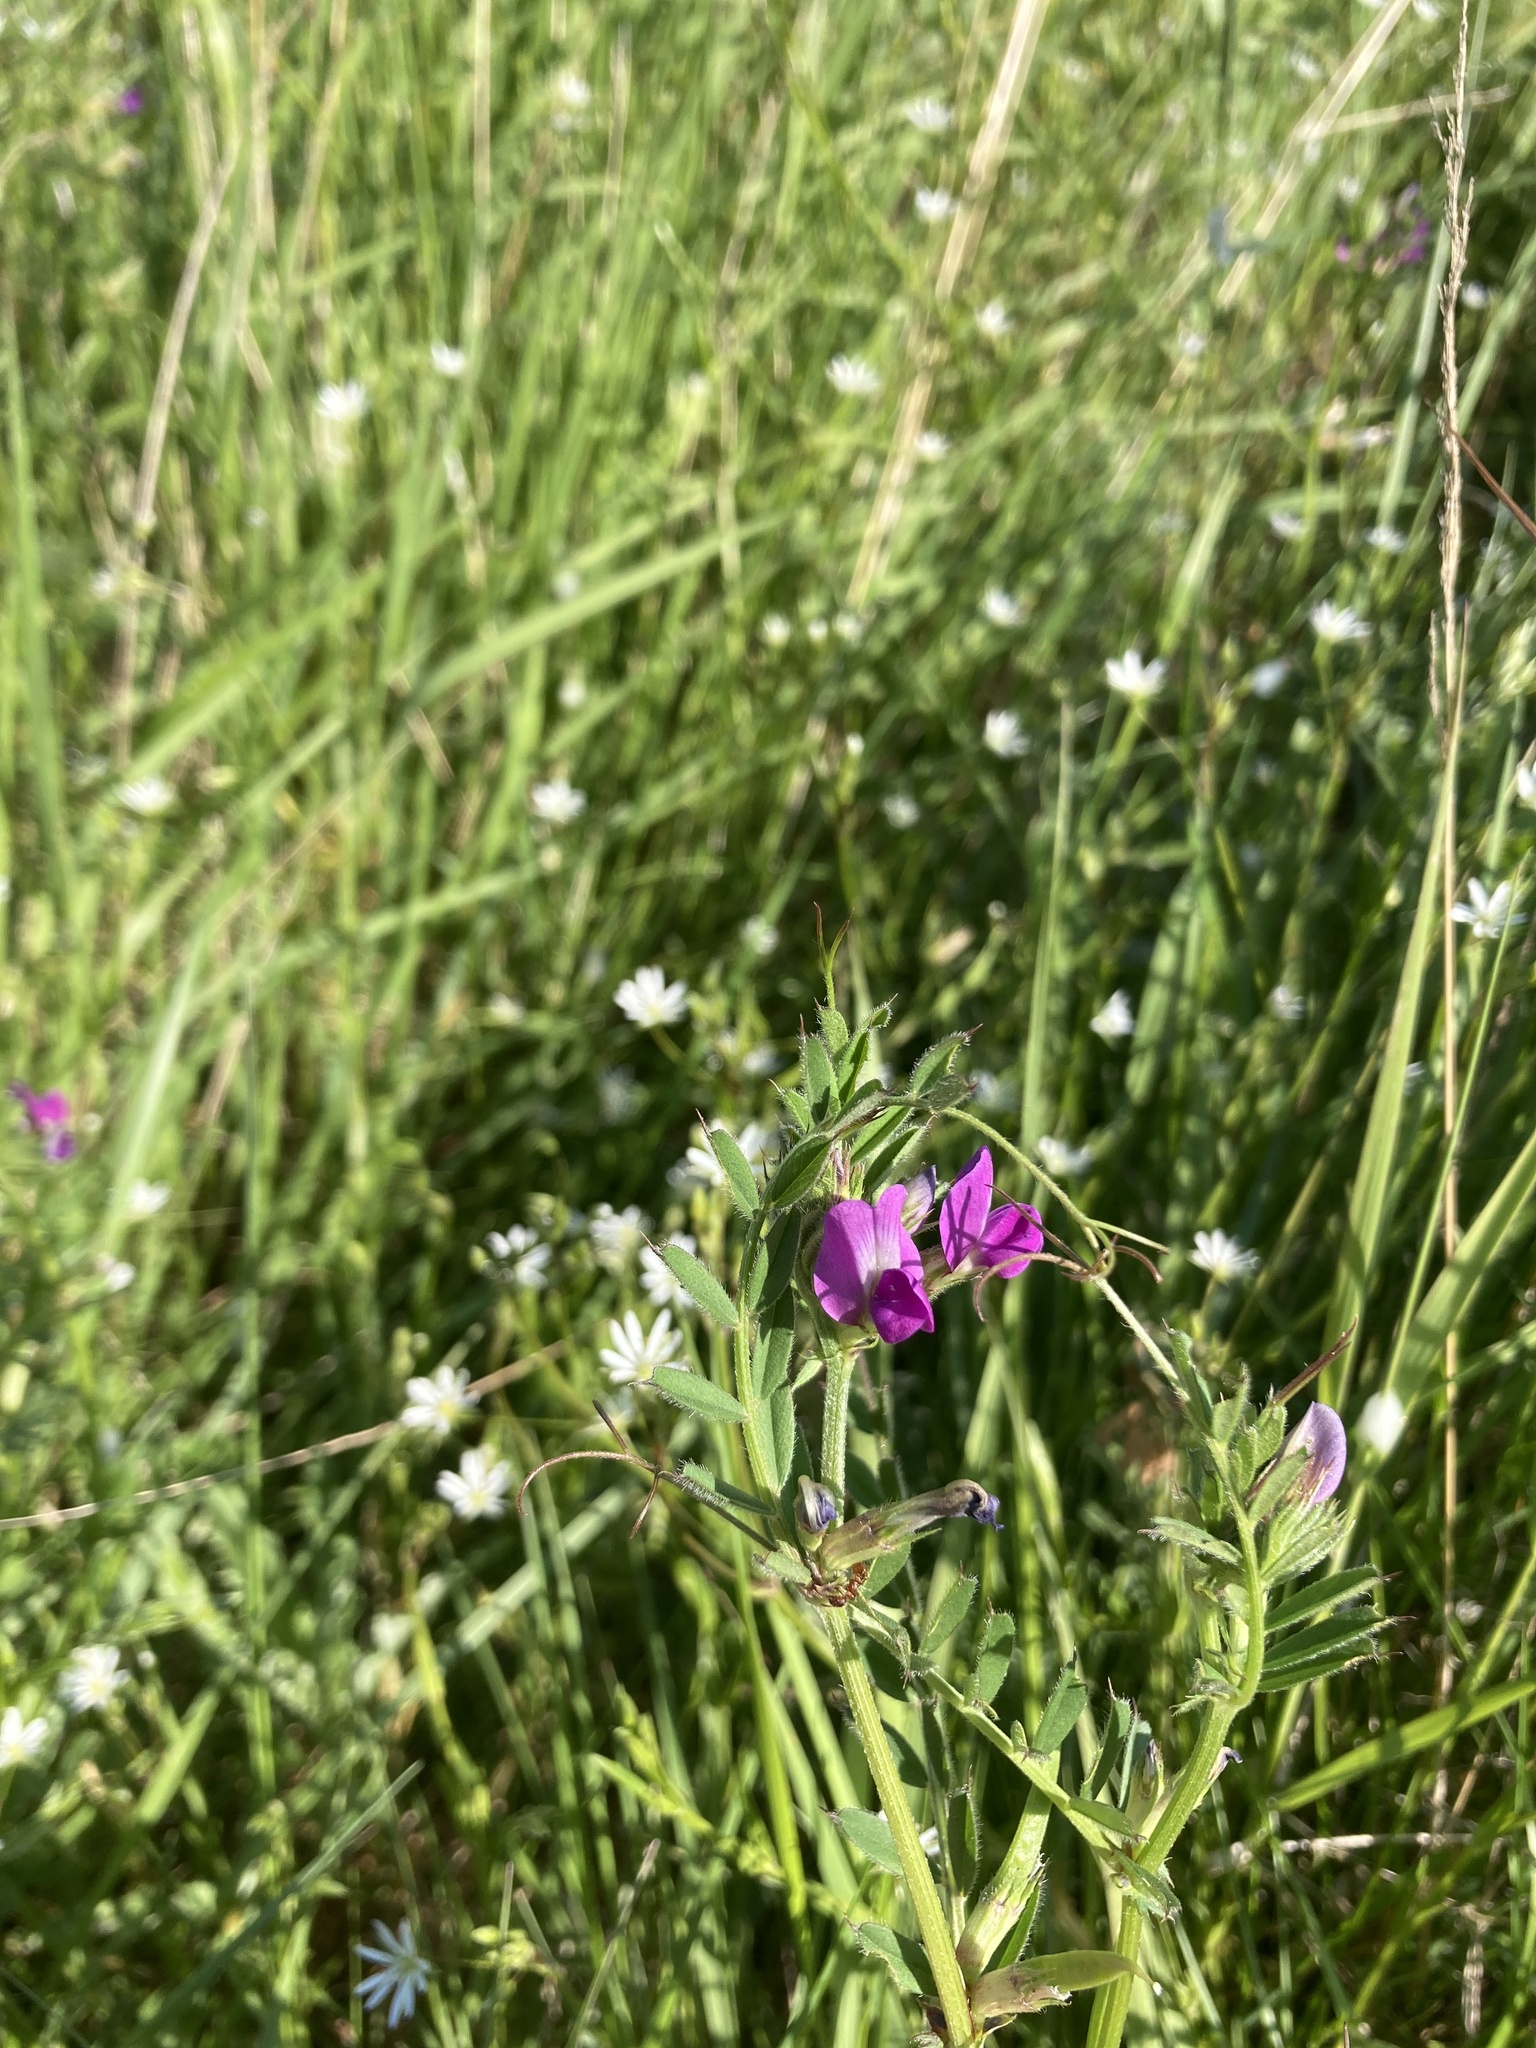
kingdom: Plantae
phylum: Tracheophyta
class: Magnoliopsida
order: Fabales
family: Fabaceae
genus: Vicia
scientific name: Vicia sativa
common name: Garden vetch
